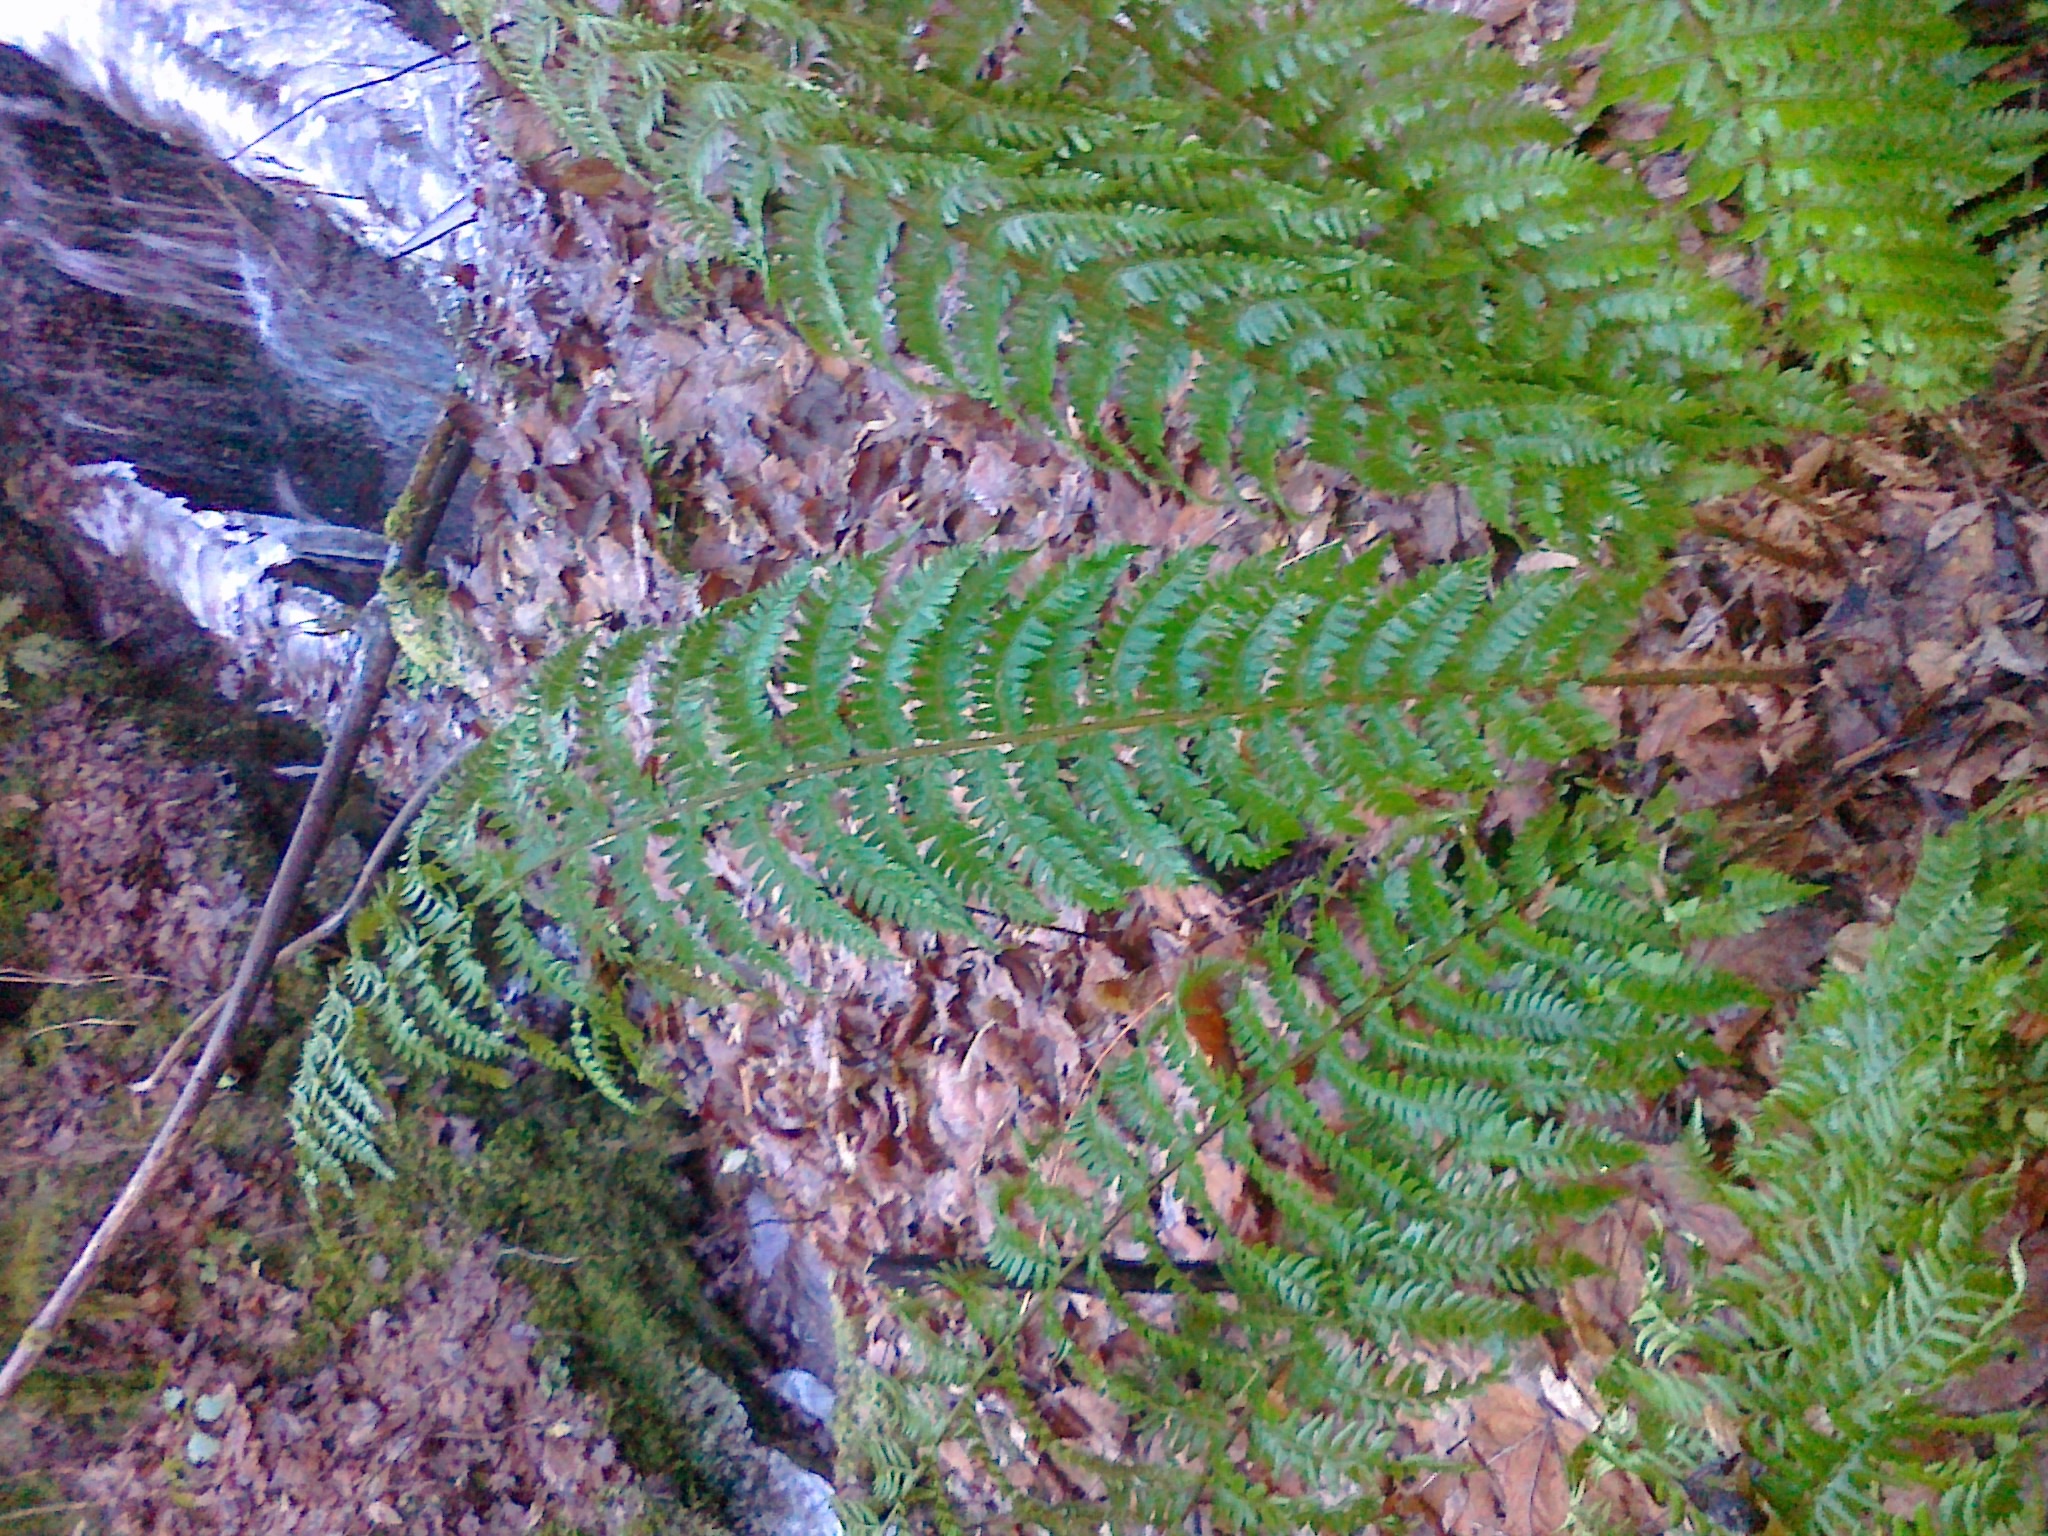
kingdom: Plantae
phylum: Tracheophyta
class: Polypodiopsida
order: Polypodiales
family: Dryopteridaceae
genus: Polystichum
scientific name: Polystichum luerssenii
